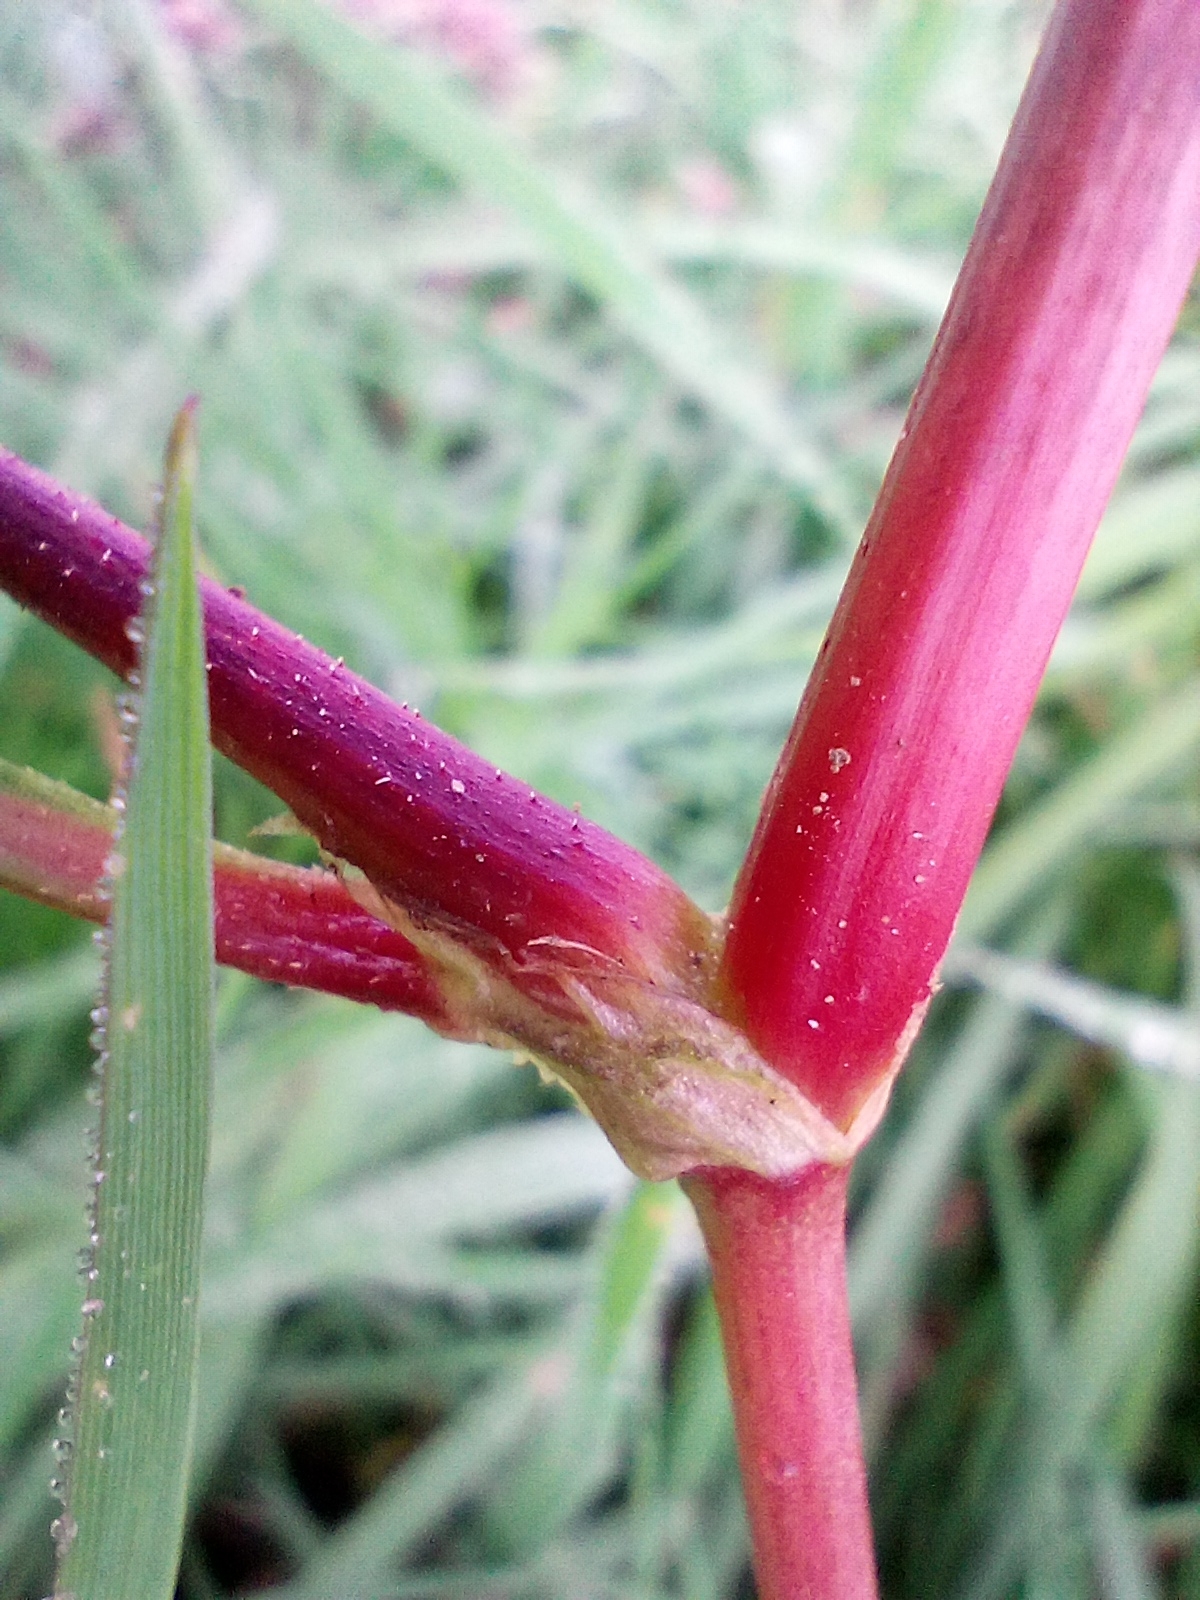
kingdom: Plantae
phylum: Tracheophyta
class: Magnoliopsida
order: Caryophyllales
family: Polygonaceae
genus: Persicaria
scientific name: Persicaria lapathifolia
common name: Curlytop knotweed
